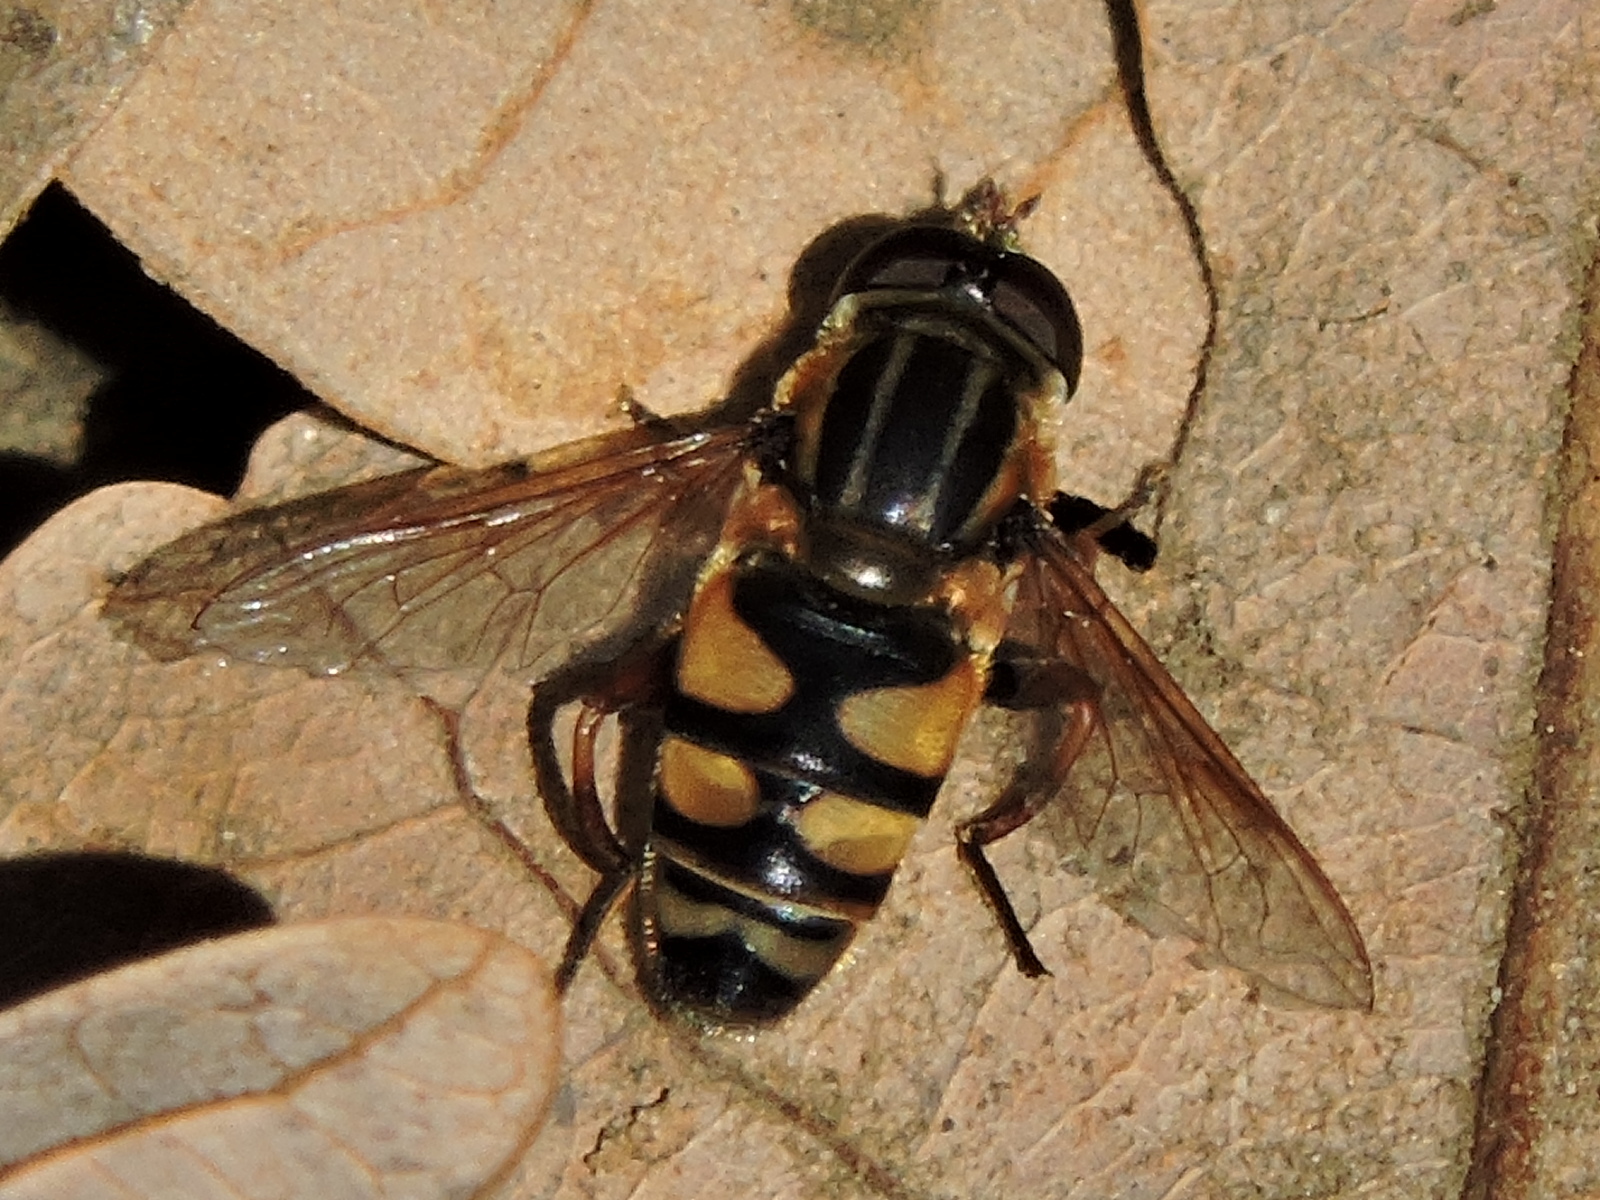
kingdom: Animalia
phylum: Arthropoda
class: Insecta
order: Diptera
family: Syrphidae
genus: Helophilus
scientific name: Helophilus fasciatus
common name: Narrow-headed marsh fly
